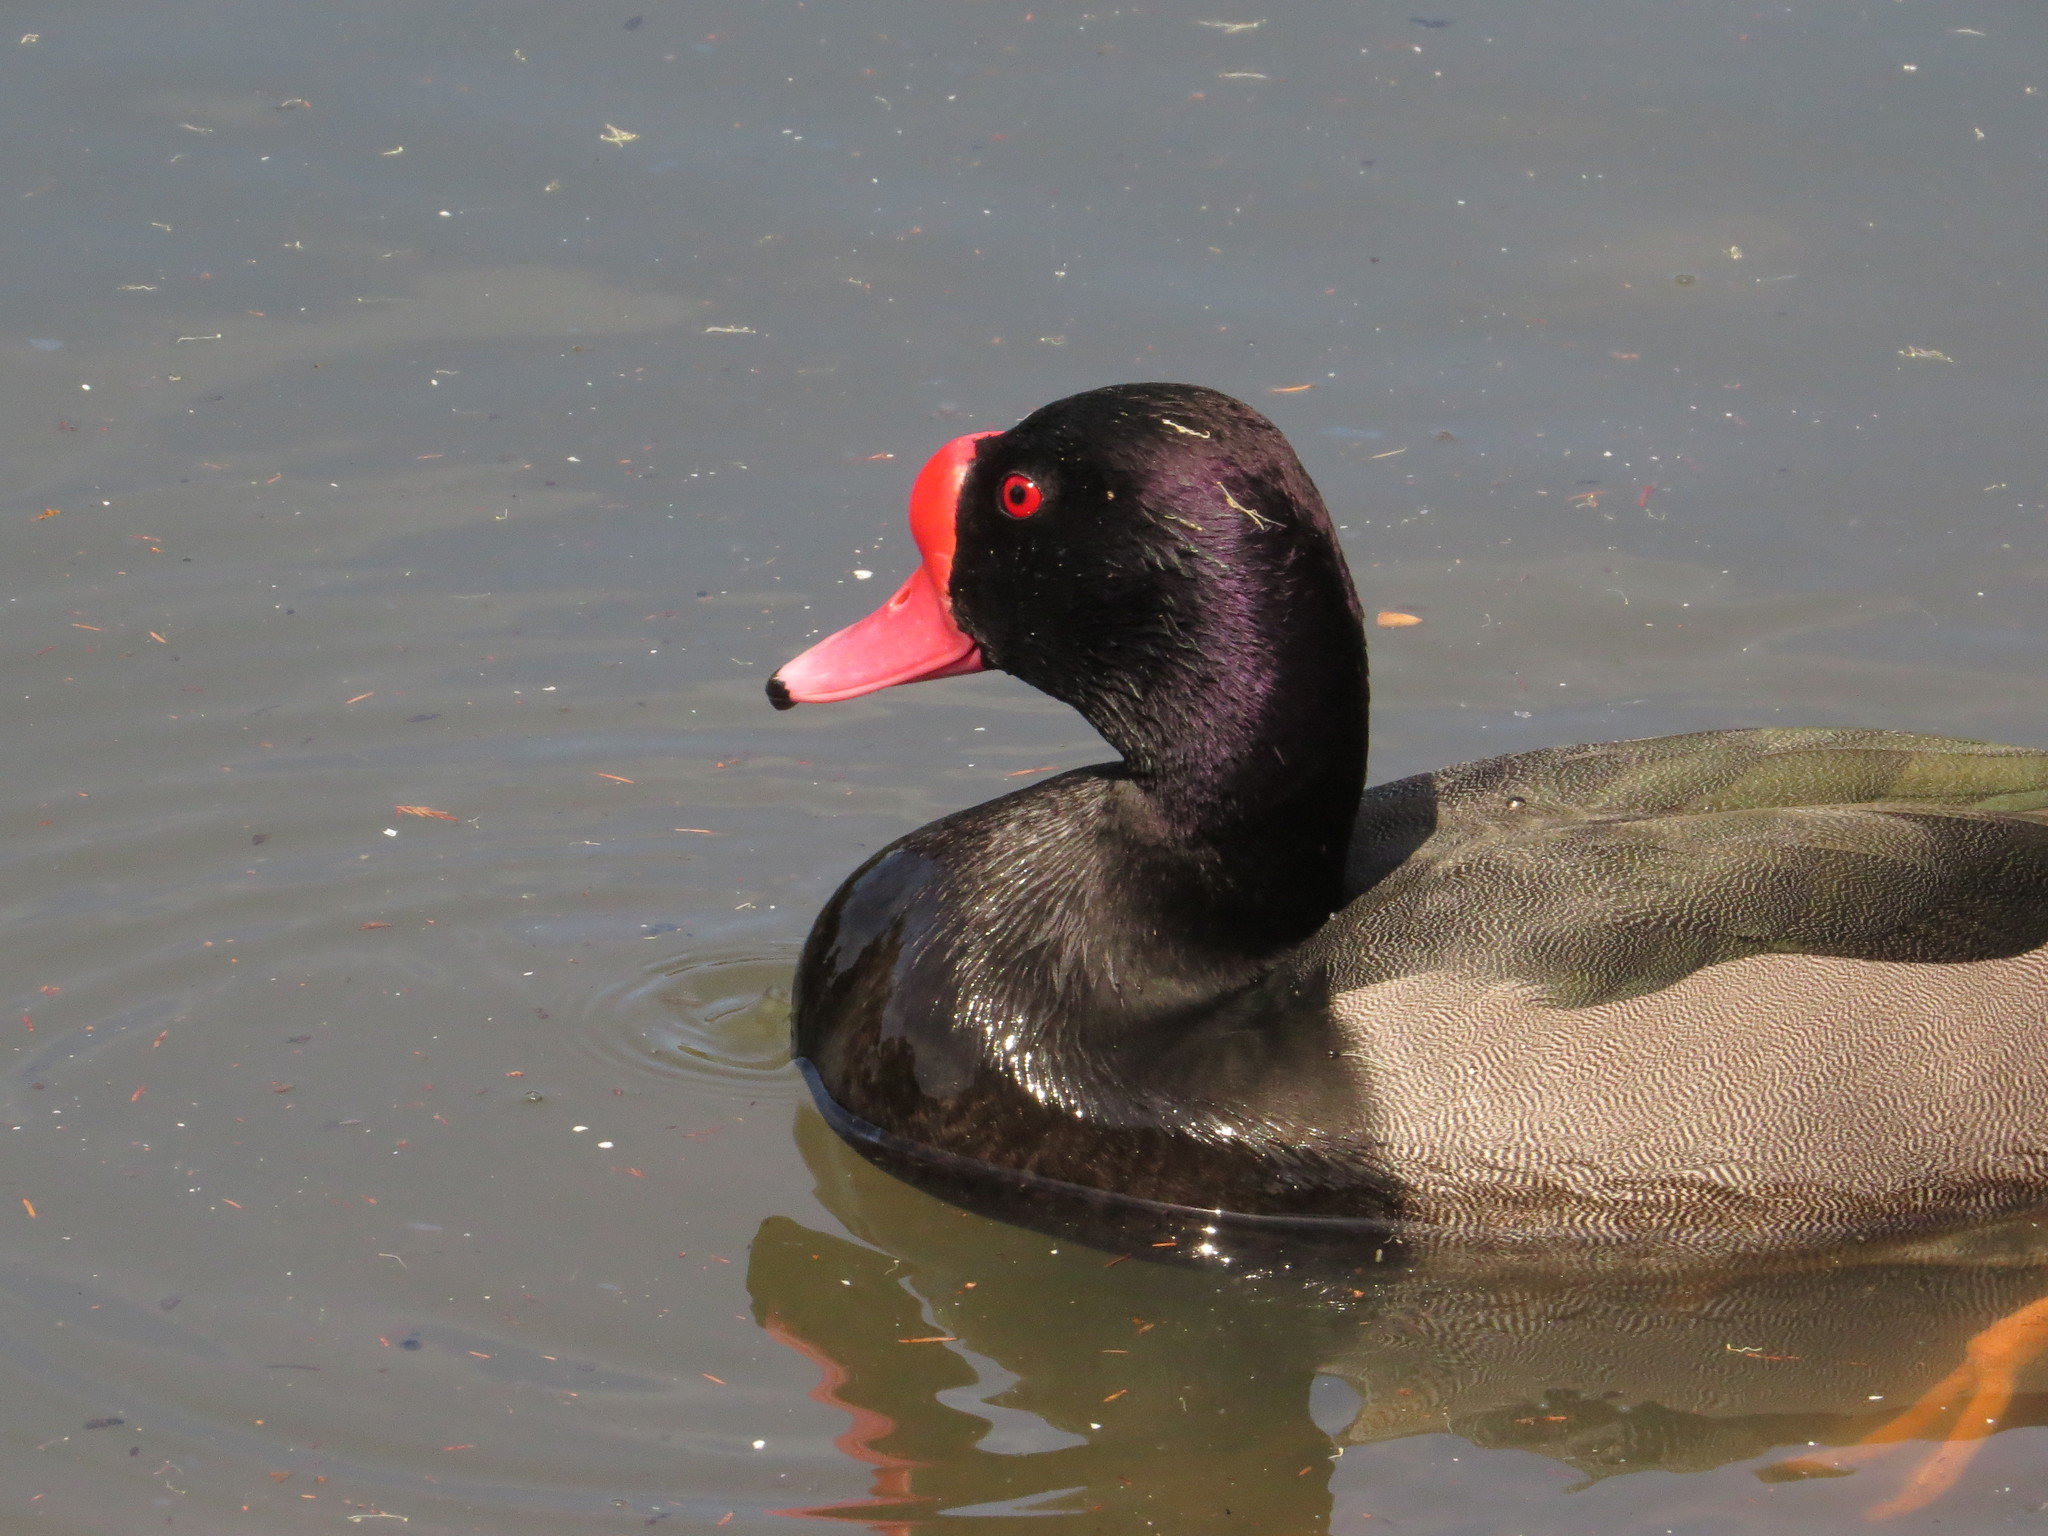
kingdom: Animalia
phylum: Chordata
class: Aves
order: Anseriformes
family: Anatidae
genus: Netta
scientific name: Netta peposaca
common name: Rosy-billed pochard
